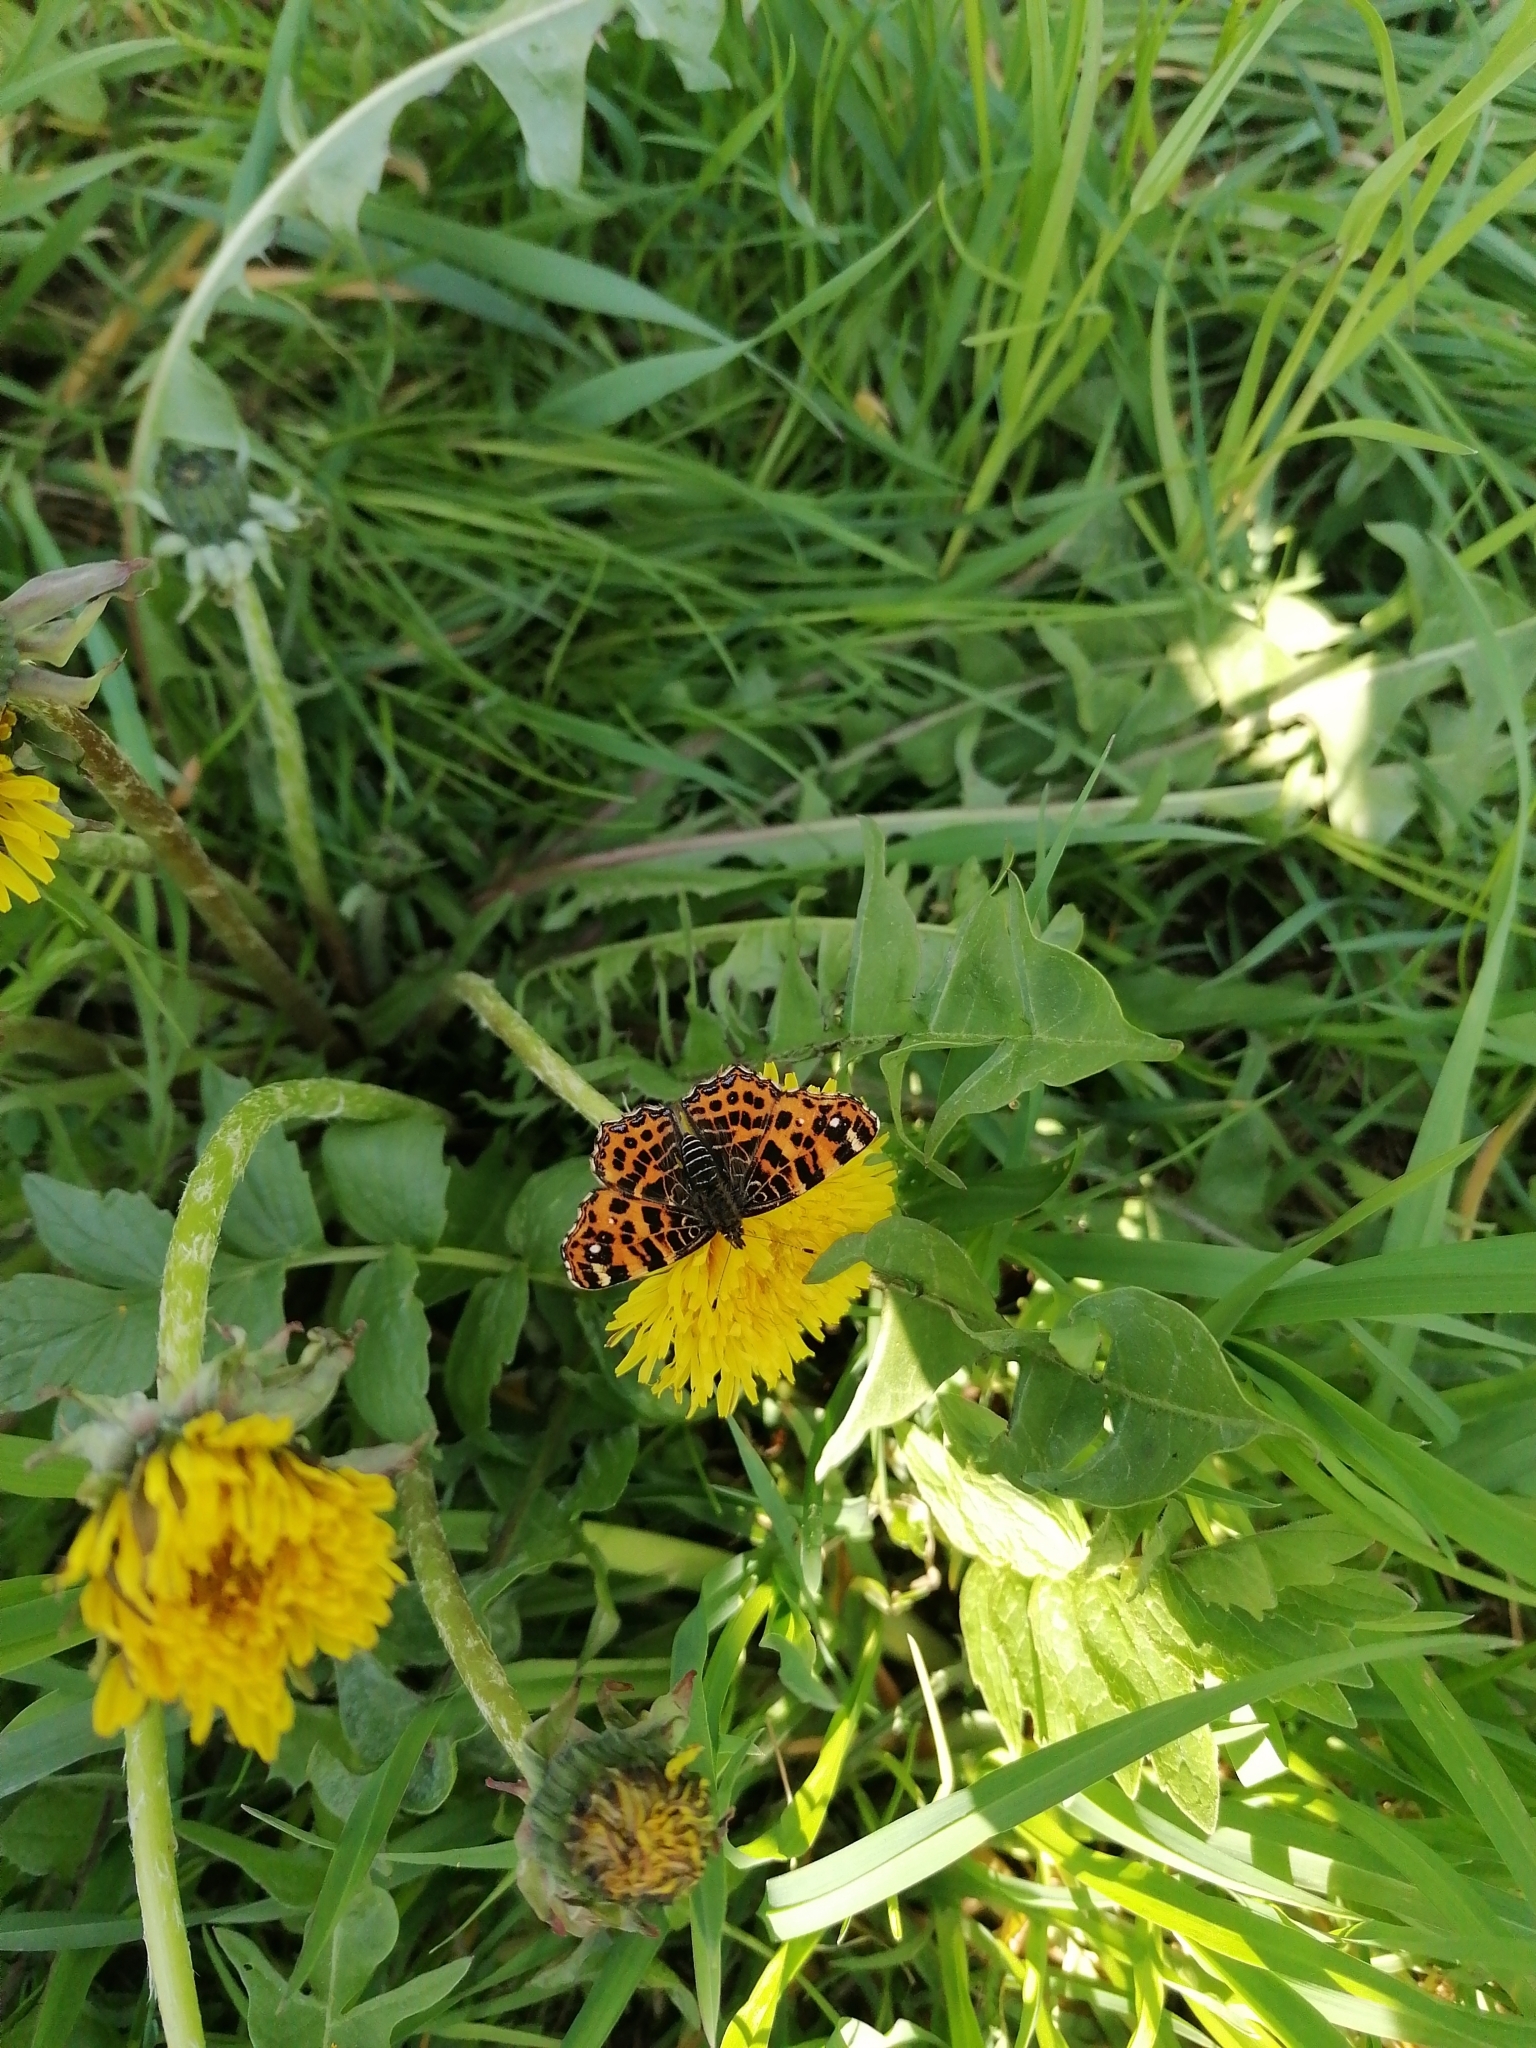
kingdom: Animalia
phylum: Arthropoda
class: Insecta
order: Lepidoptera
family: Nymphalidae
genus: Araschnia
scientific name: Araschnia levana
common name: Map butterfly
